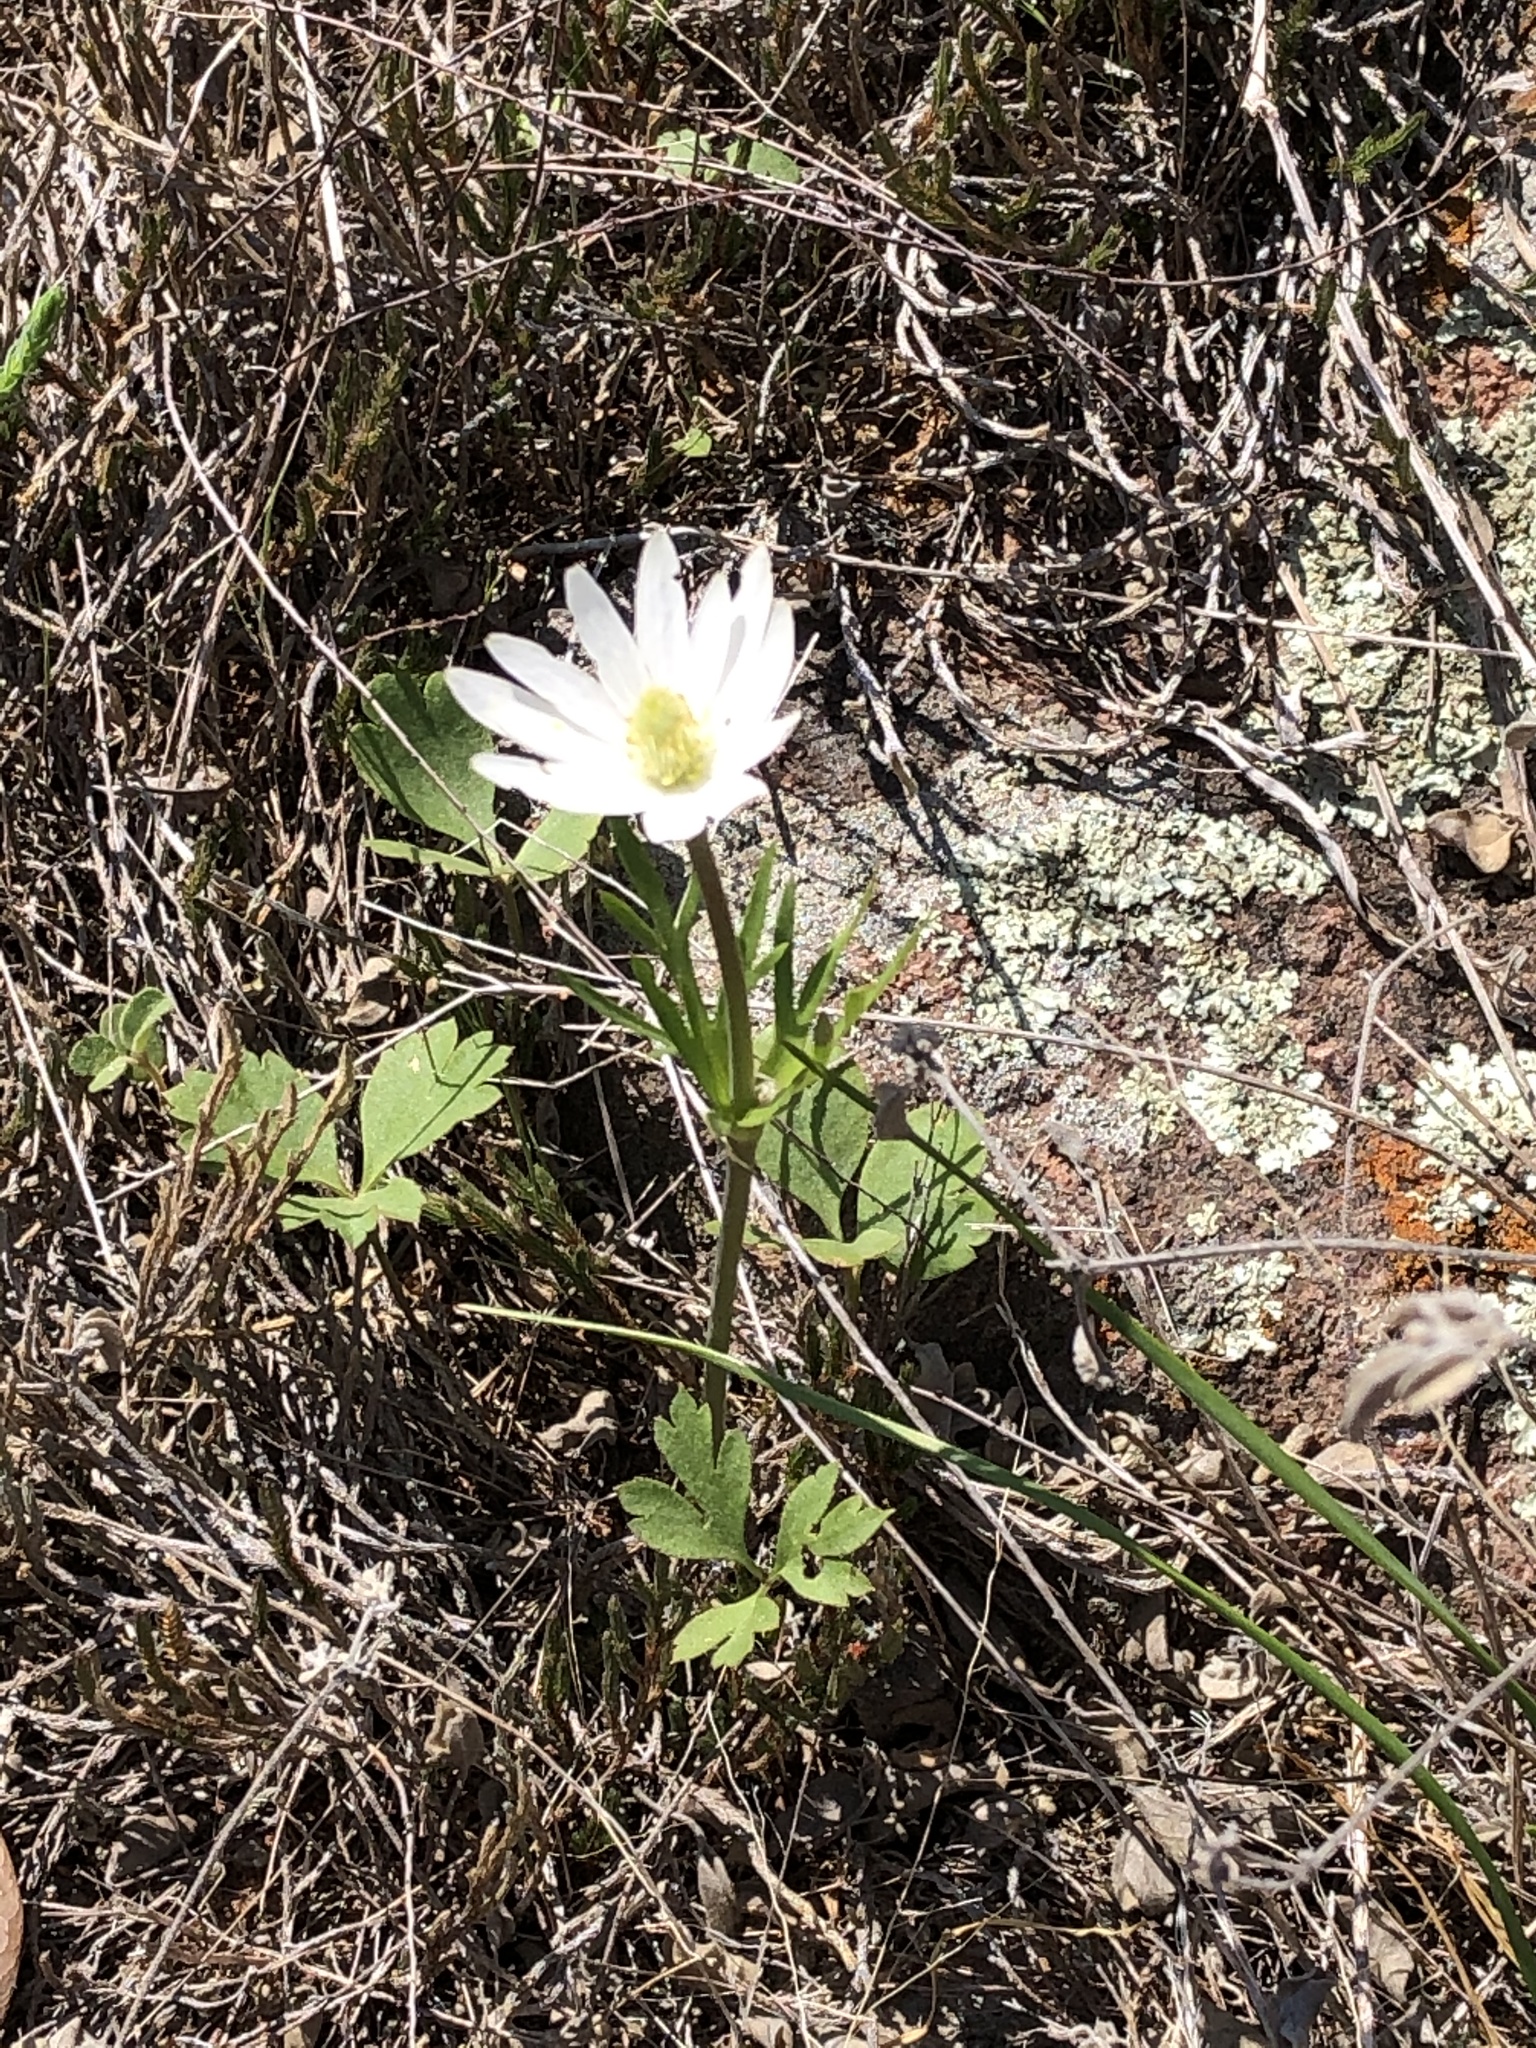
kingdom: Plantae
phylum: Tracheophyta
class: Magnoliopsida
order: Ranunculales
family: Ranunculaceae
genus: Anemone
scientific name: Anemone berlandieri
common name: Ten-petal anemone
